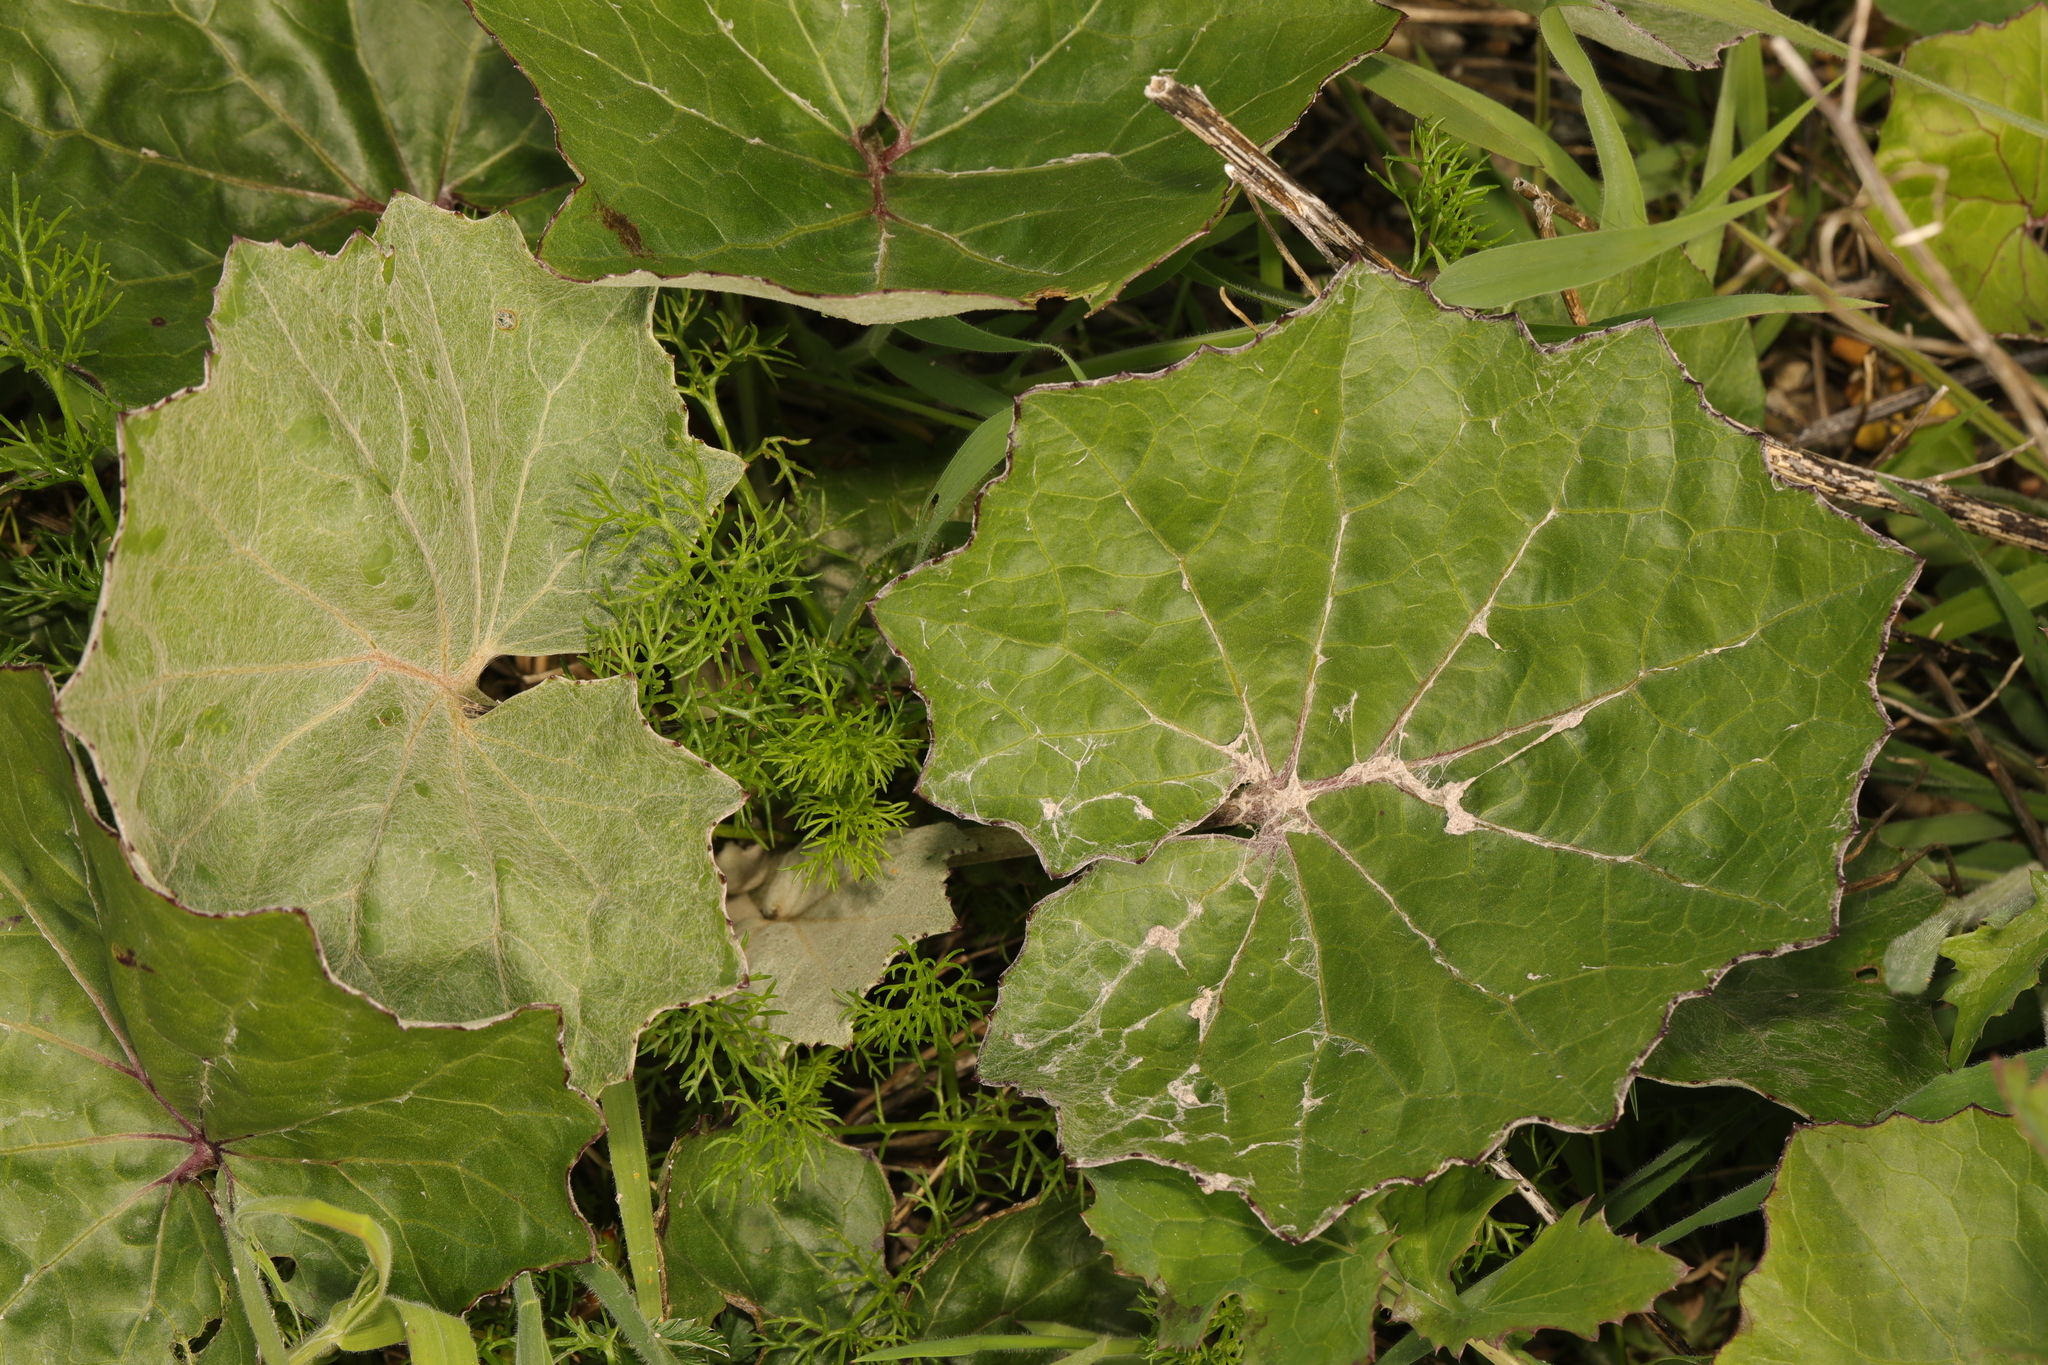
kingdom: Plantae
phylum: Tracheophyta
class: Magnoliopsida
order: Asterales
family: Asteraceae
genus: Tussilago
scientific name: Tussilago farfara
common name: Coltsfoot
